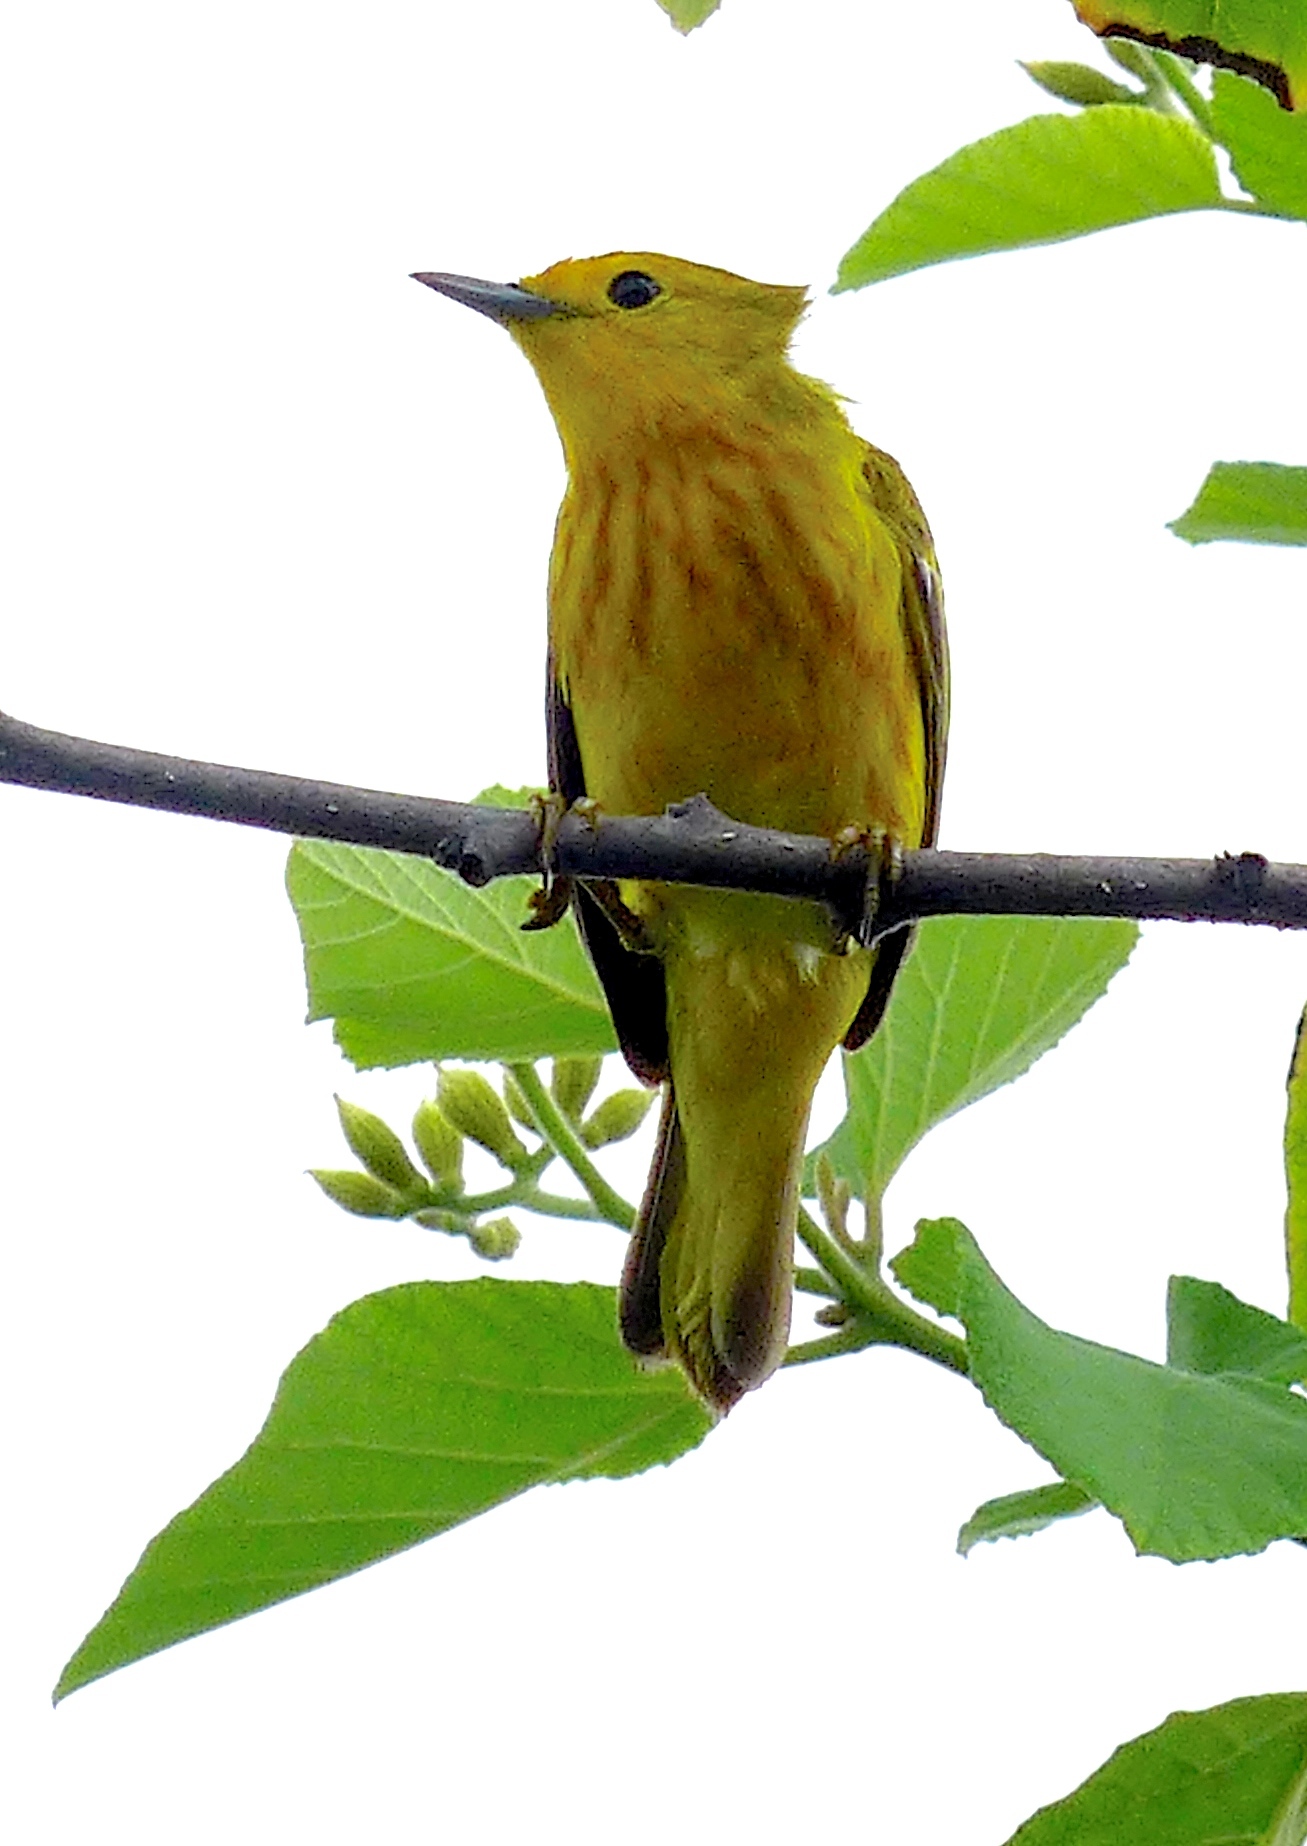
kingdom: Animalia
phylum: Chordata
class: Aves
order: Passeriformes
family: Parulidae
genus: Setophaga
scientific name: Setophaga petechia
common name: Yellow warbler
